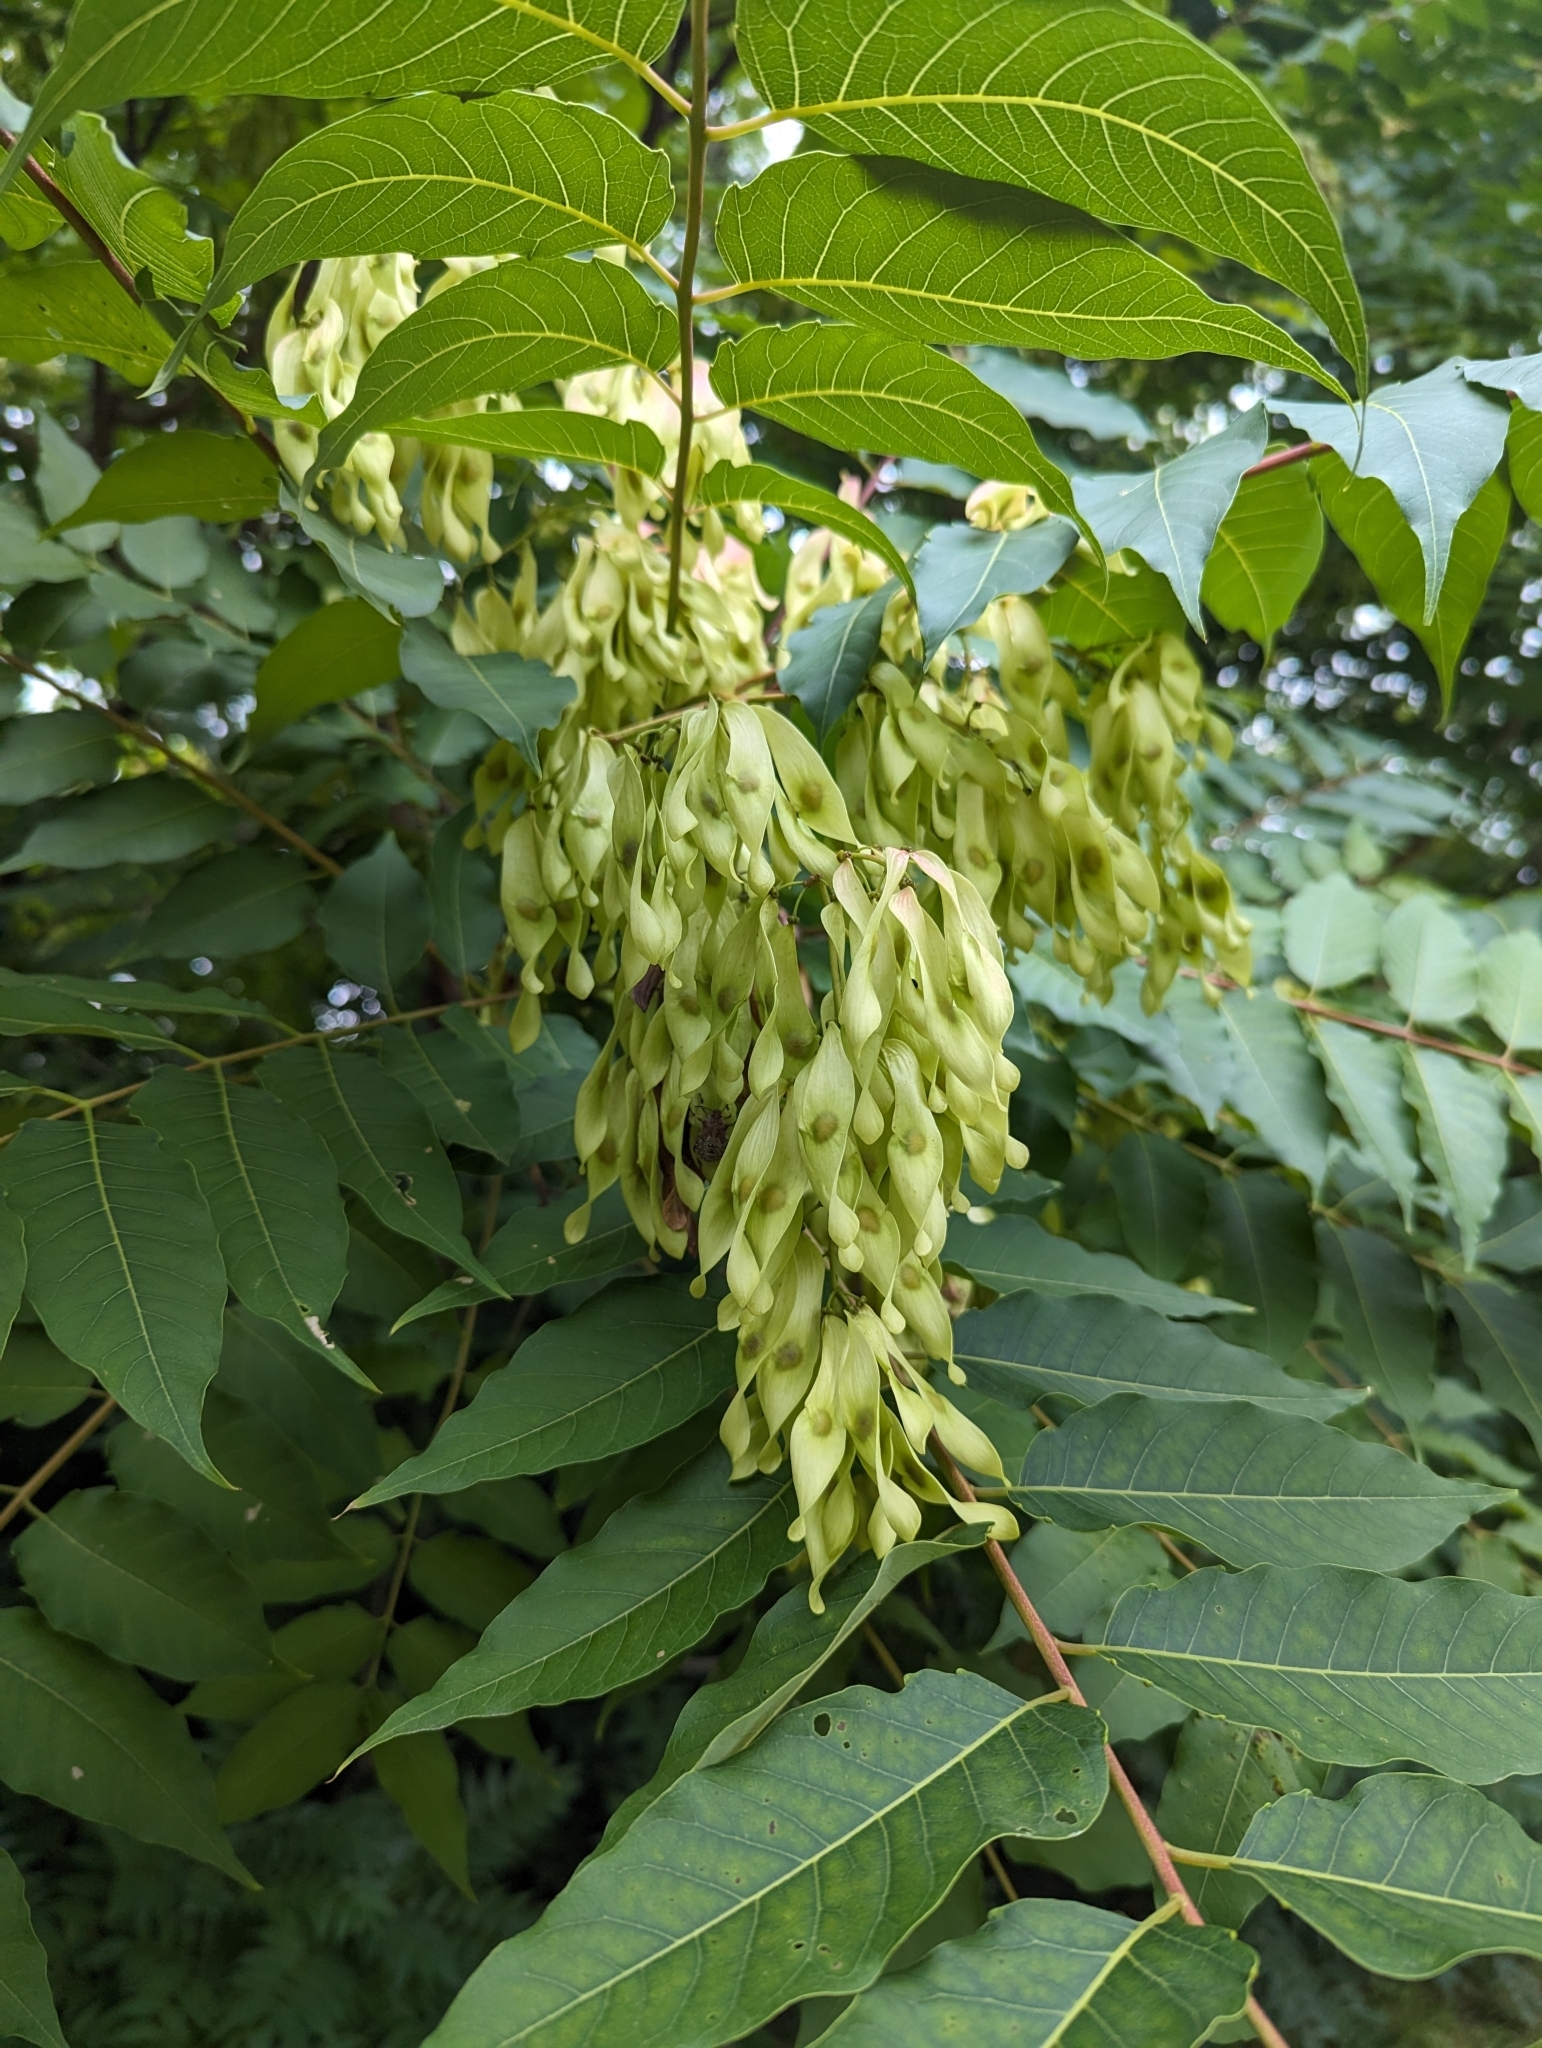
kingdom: Plantae
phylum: Tracheophyta
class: Magnoliopsida
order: Sapindales
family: Simaroubaceae
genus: Ailanthus
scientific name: Ailanthus altissima
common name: Tree-of-heaven
